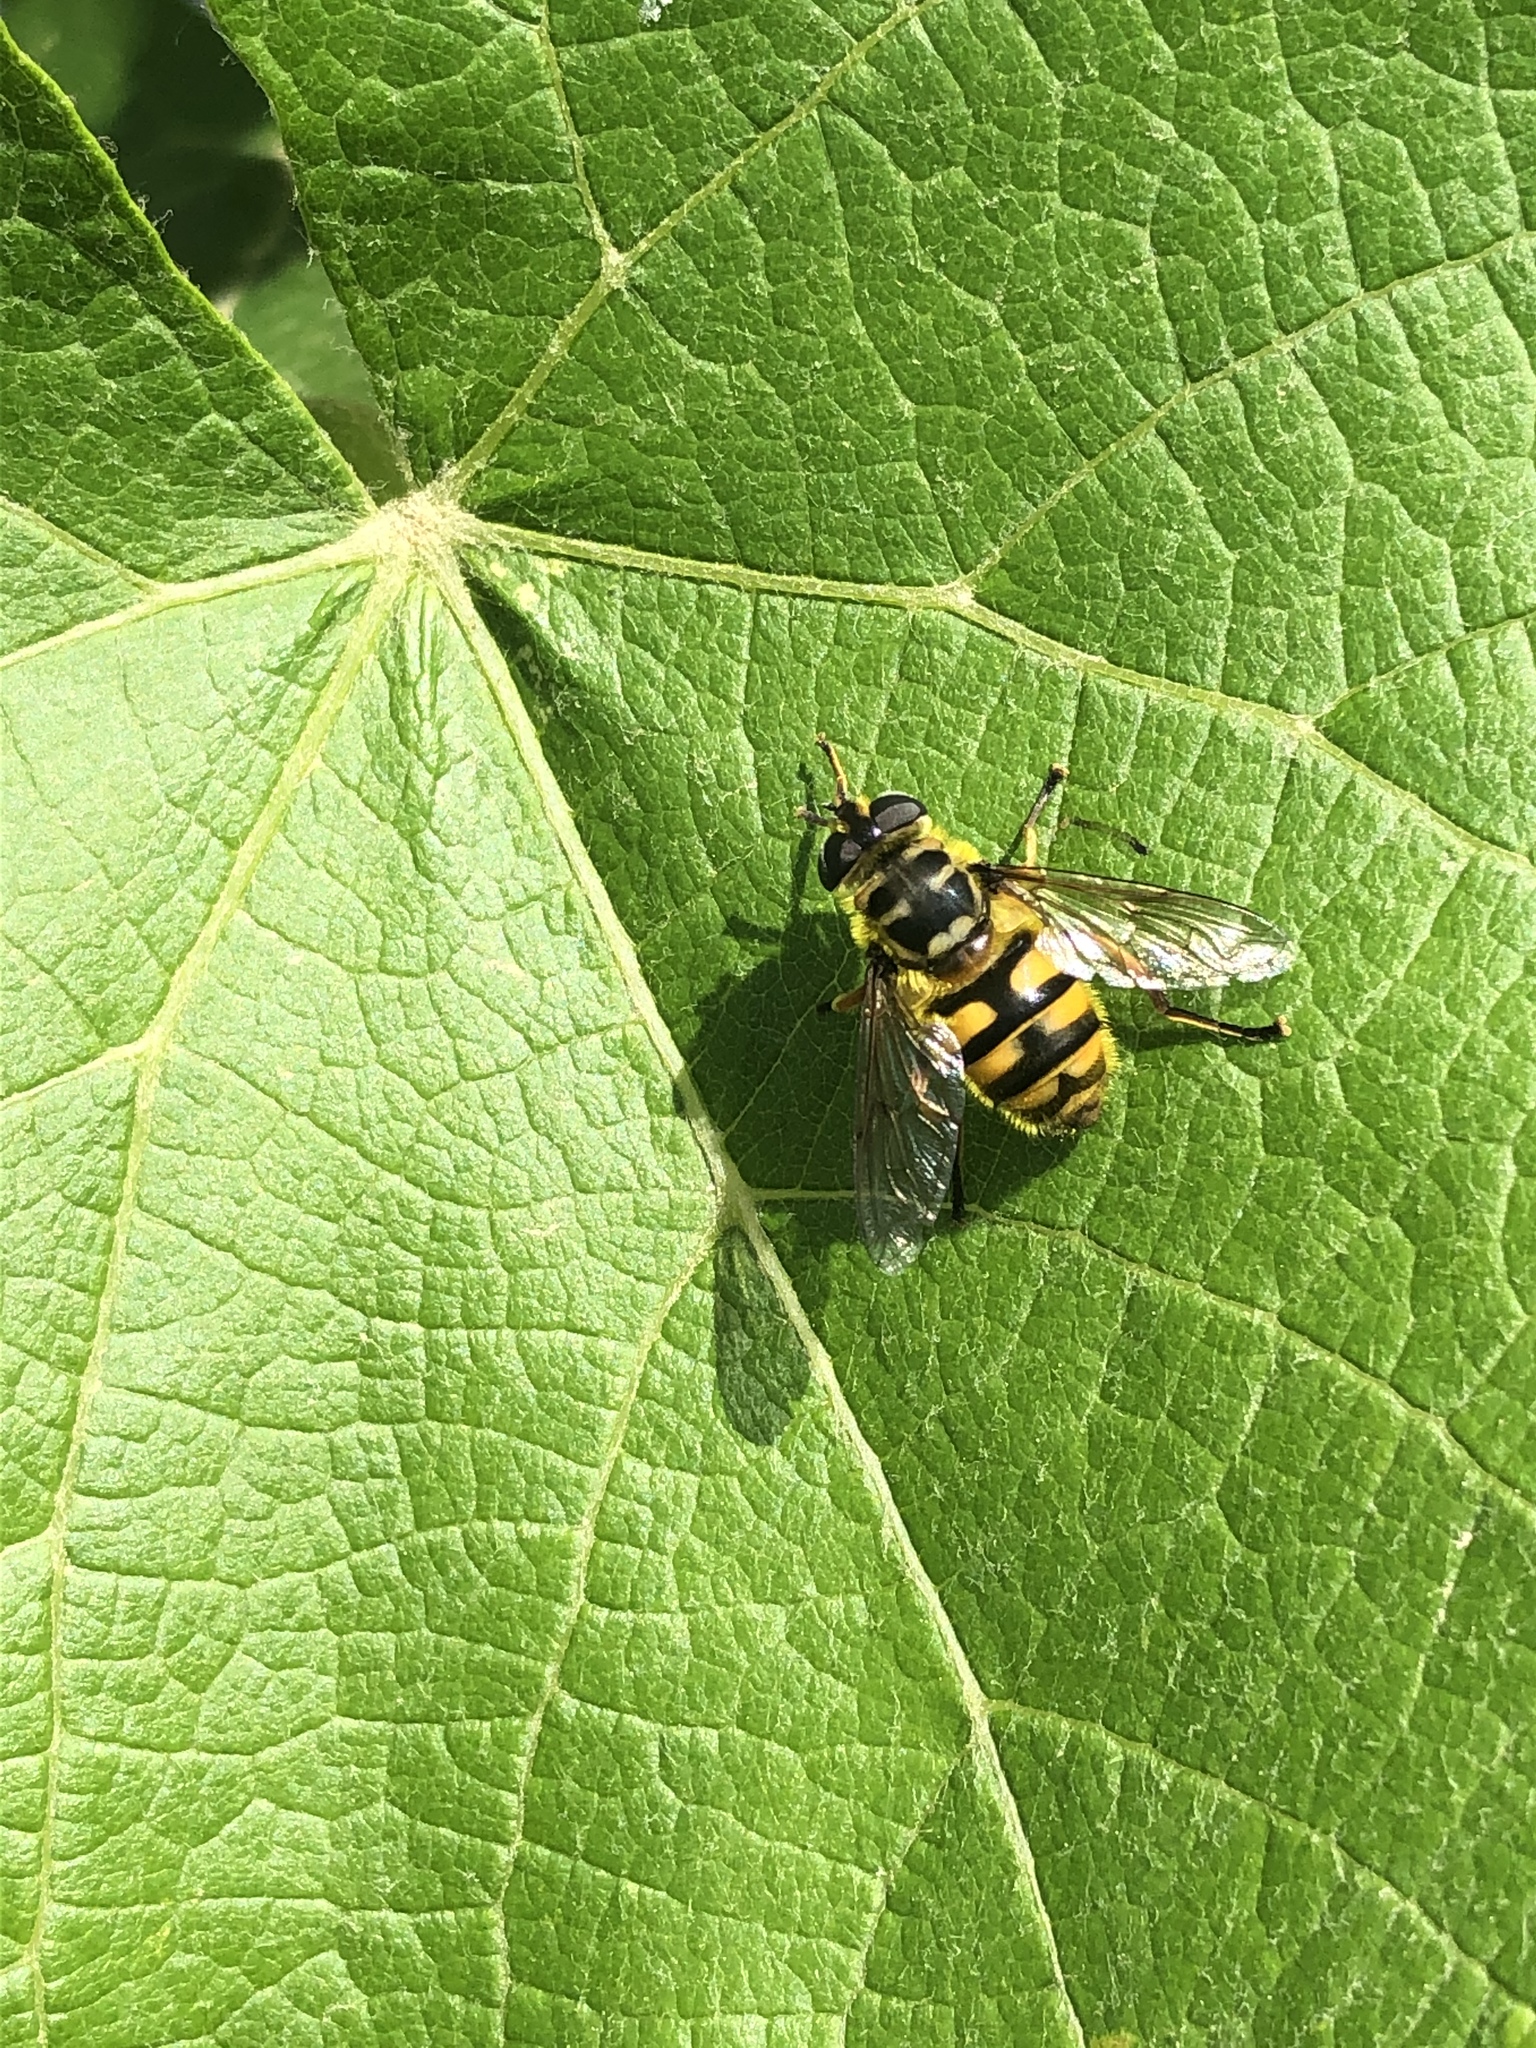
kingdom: Animalia
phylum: Arthropoda
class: Insecta
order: Diptera
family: Syrphidae
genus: Myathropa
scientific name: Myathropa florea
